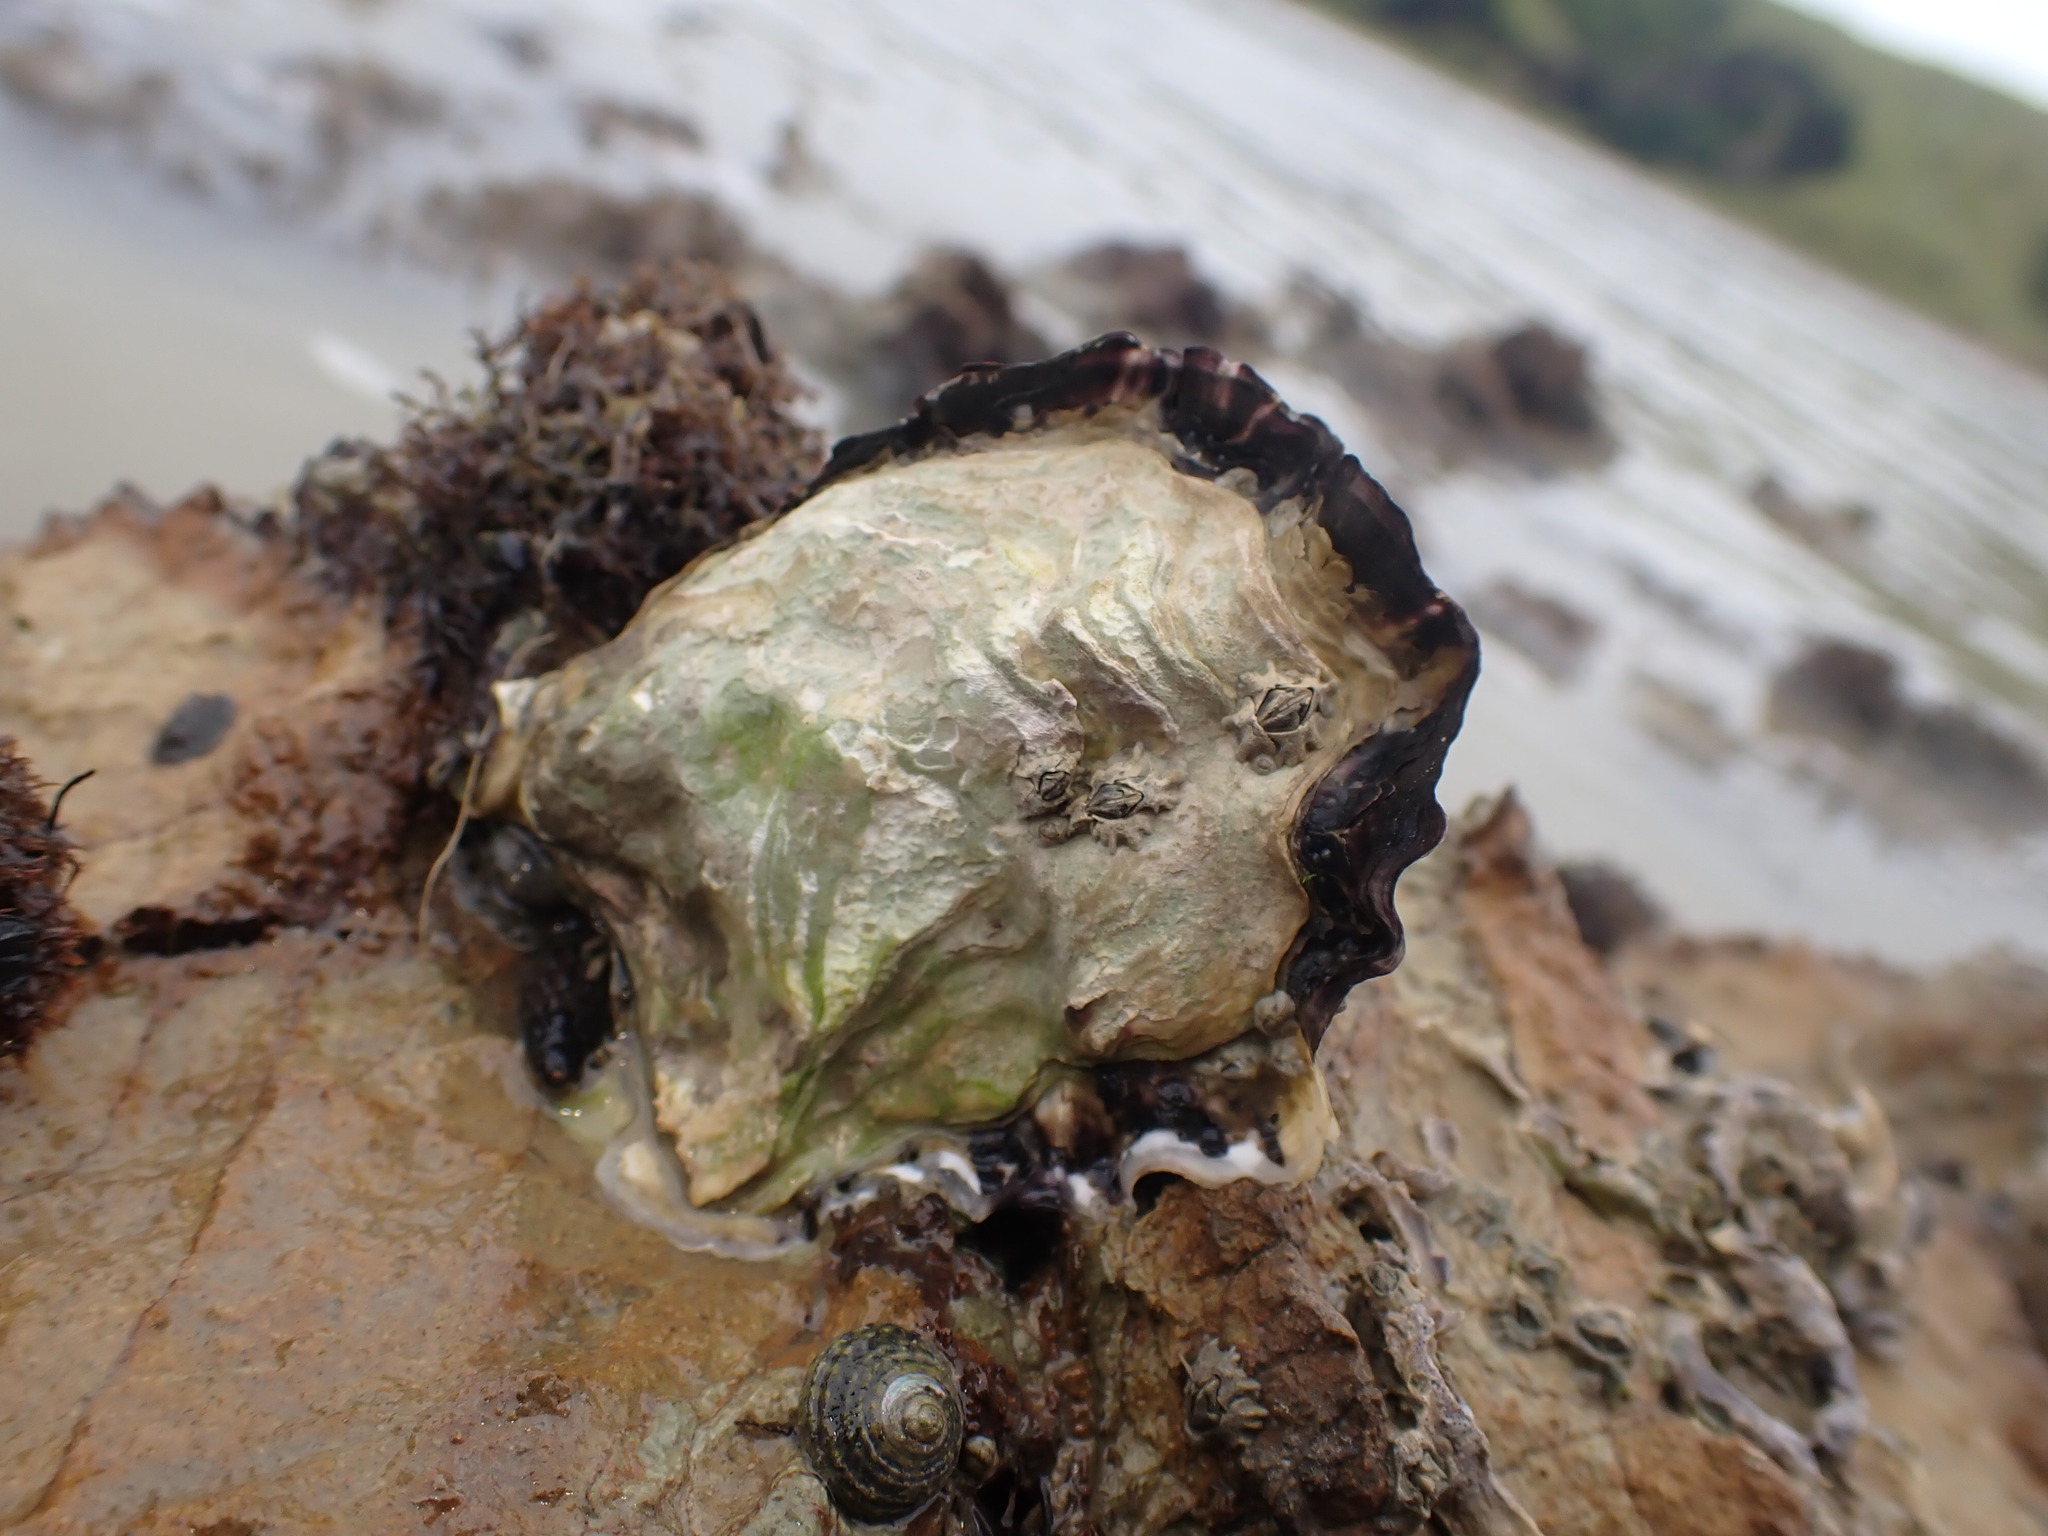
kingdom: Animalia
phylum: Mollusca
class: Bivalvia
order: Ostreida
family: Ostreidae
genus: Magallana
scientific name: Magallana gigas
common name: Pacific oyster
